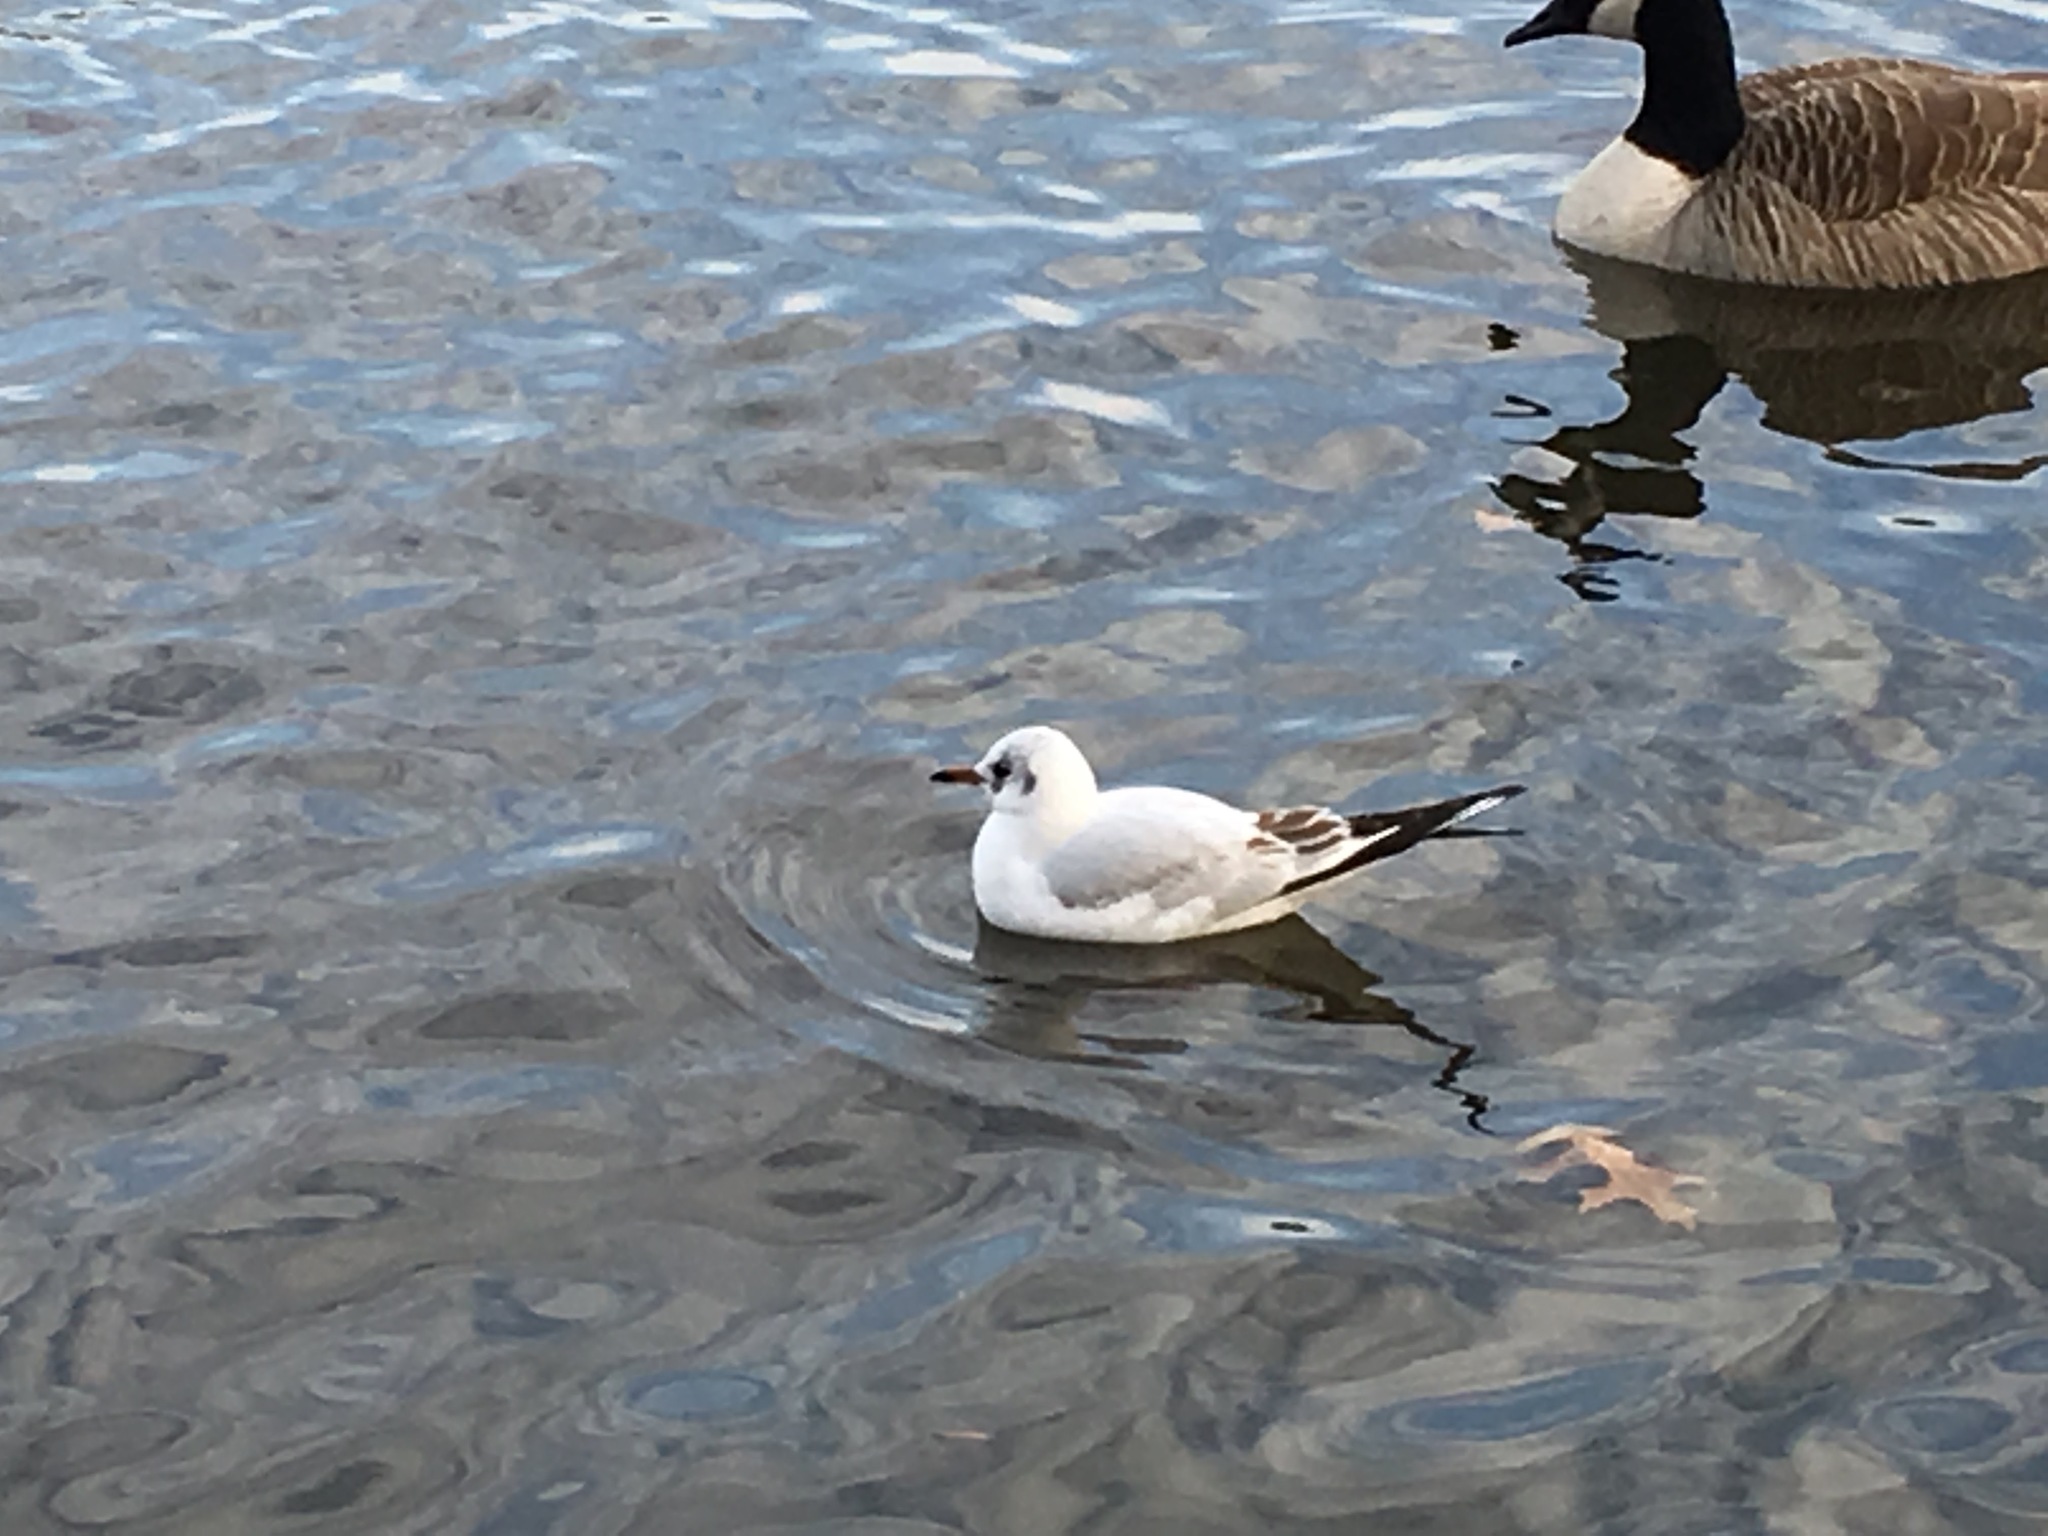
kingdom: Animalia
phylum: Chordata
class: Aves
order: Charadriiformes
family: Laridae
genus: Chroicocephalus
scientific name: Chroicocephalus ridibundus
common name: Black-headed gull
